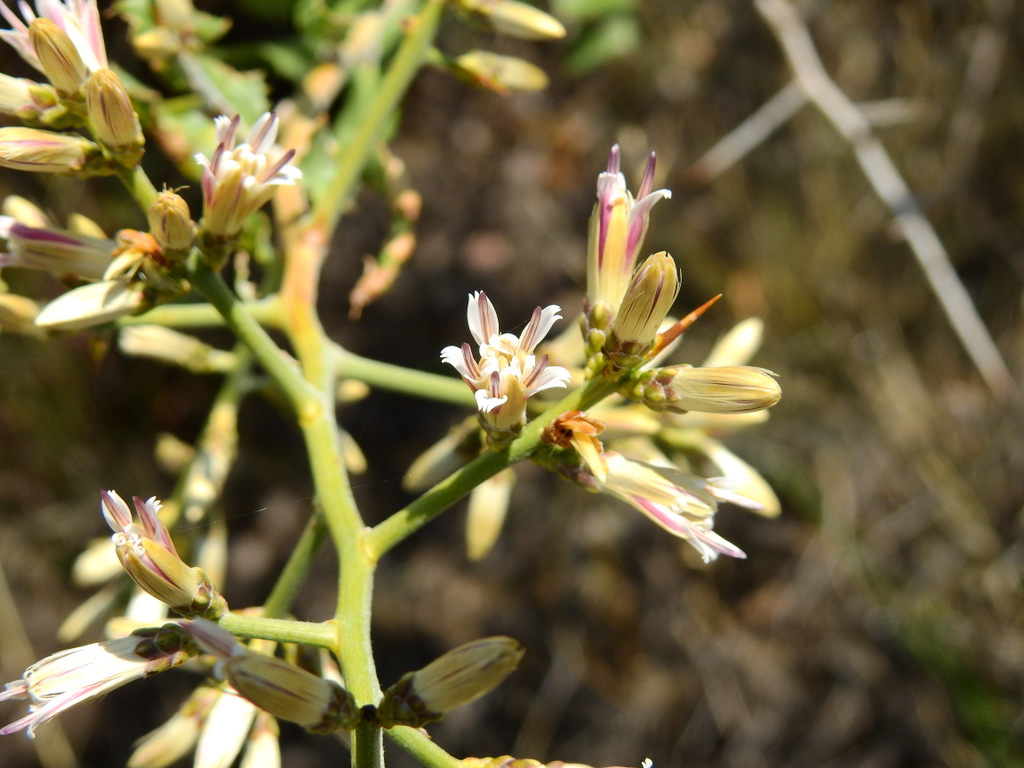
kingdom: Plantae
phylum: Tracheophyta
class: Magnoliopsida
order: Asterales
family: Asteraceae
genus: Proustia
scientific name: Proustia cuneifolia
